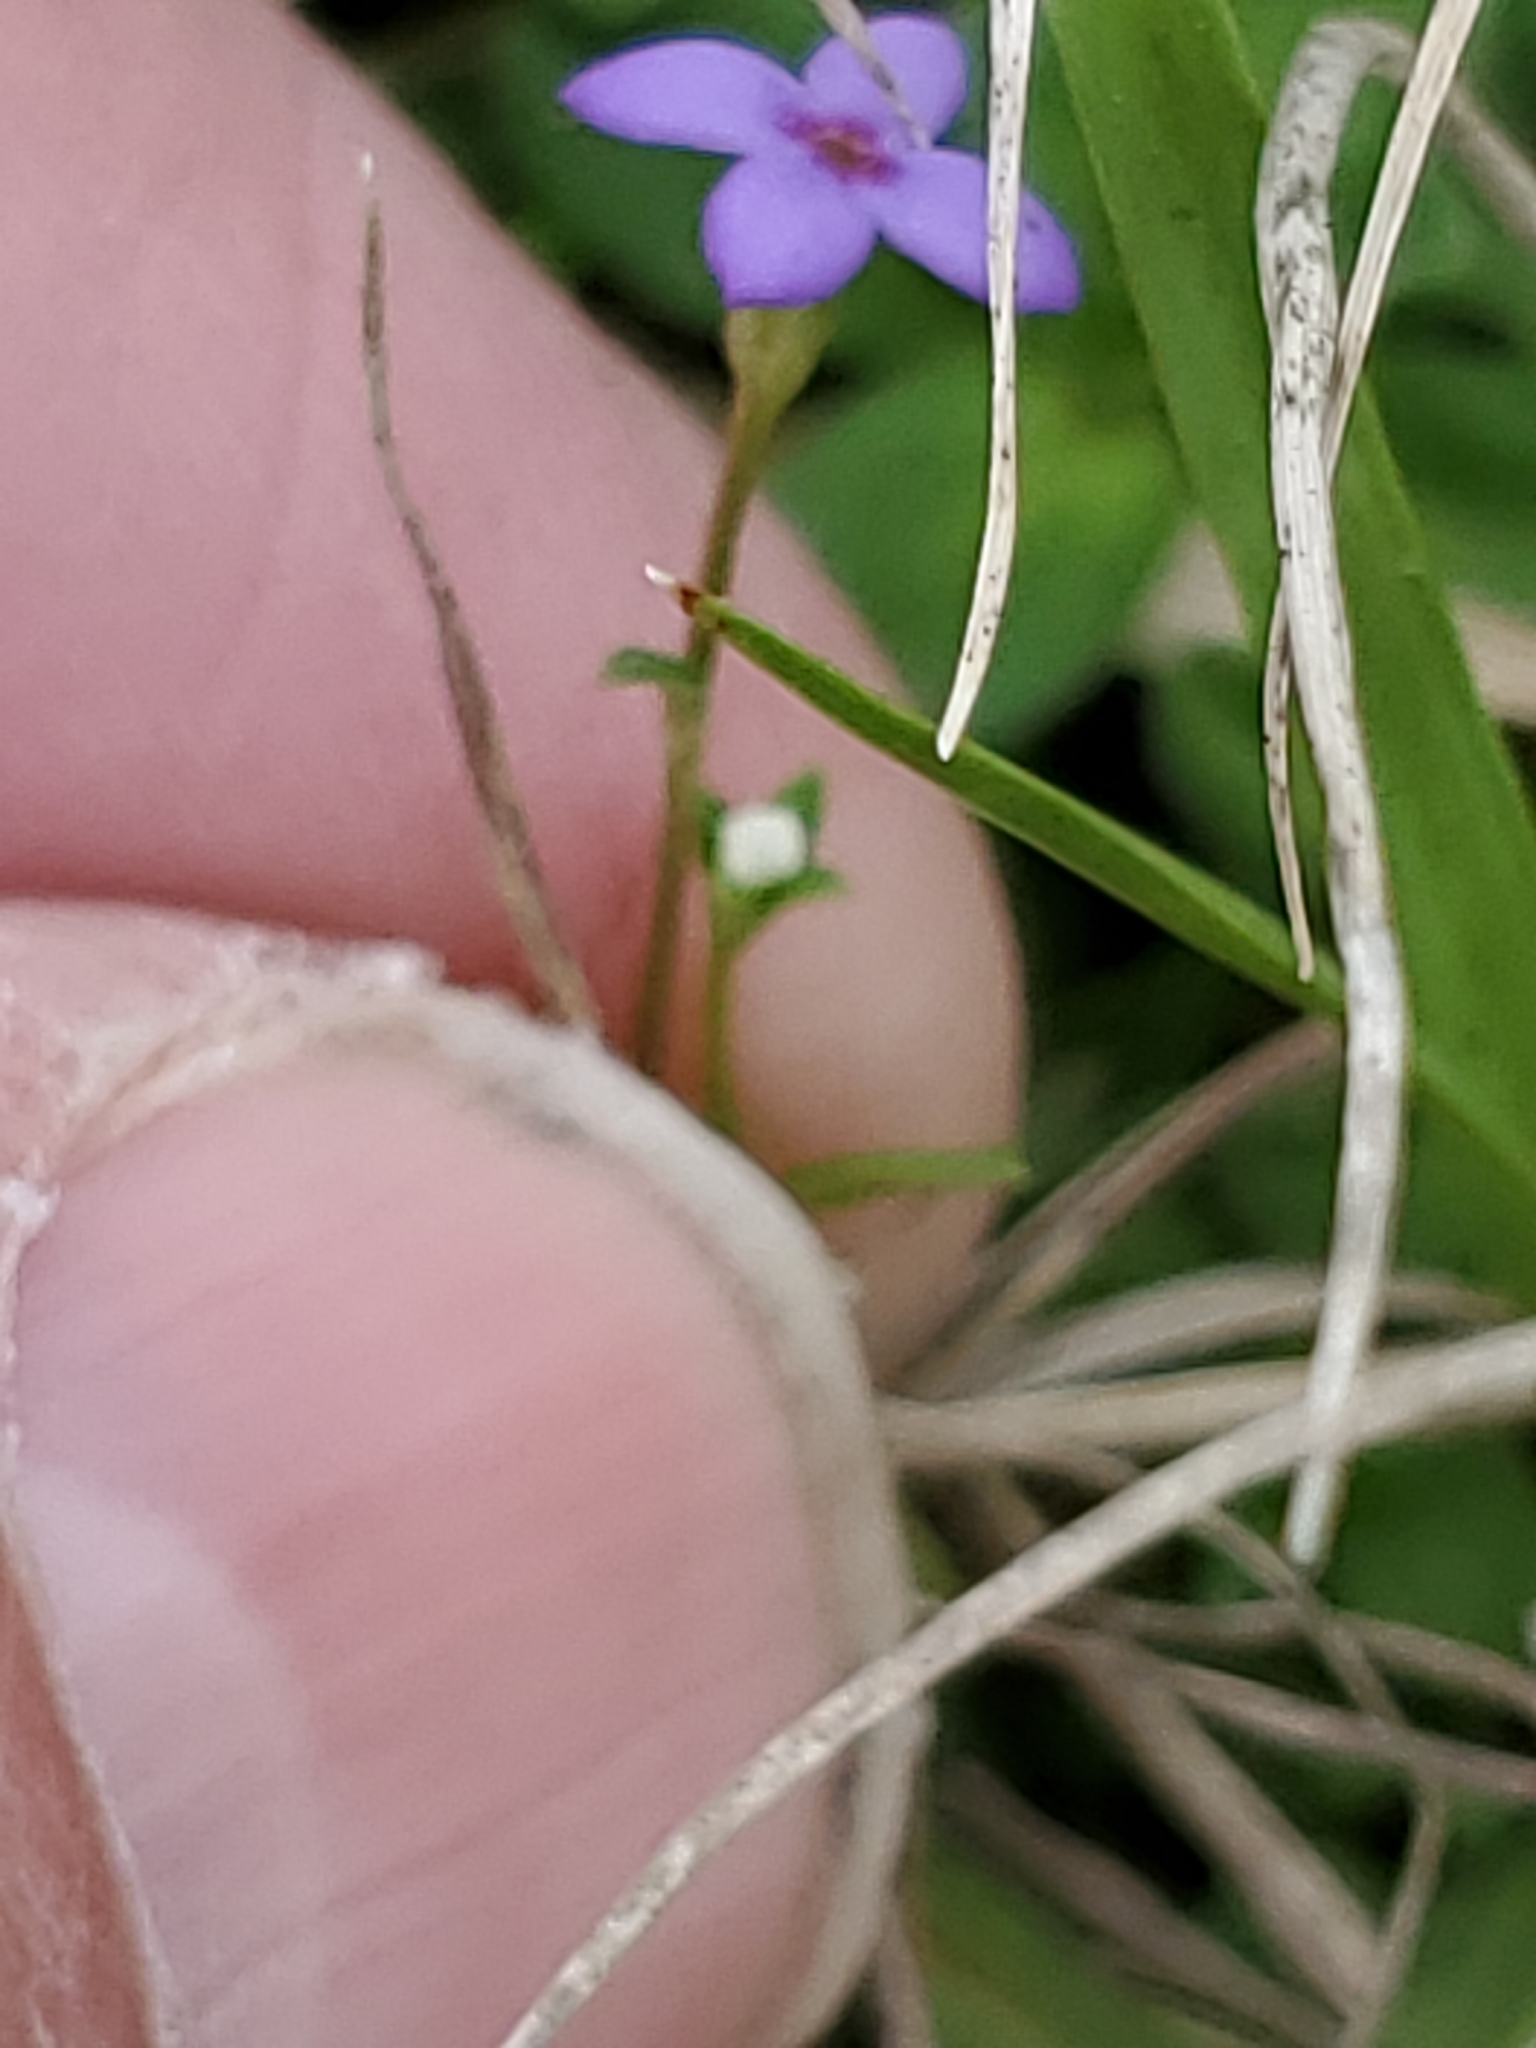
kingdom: Plantae
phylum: Tracheophyta
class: Magnoliopsida
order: Gentianales
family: Rubiaceae
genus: Houstonia
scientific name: Houstonia pusilla
